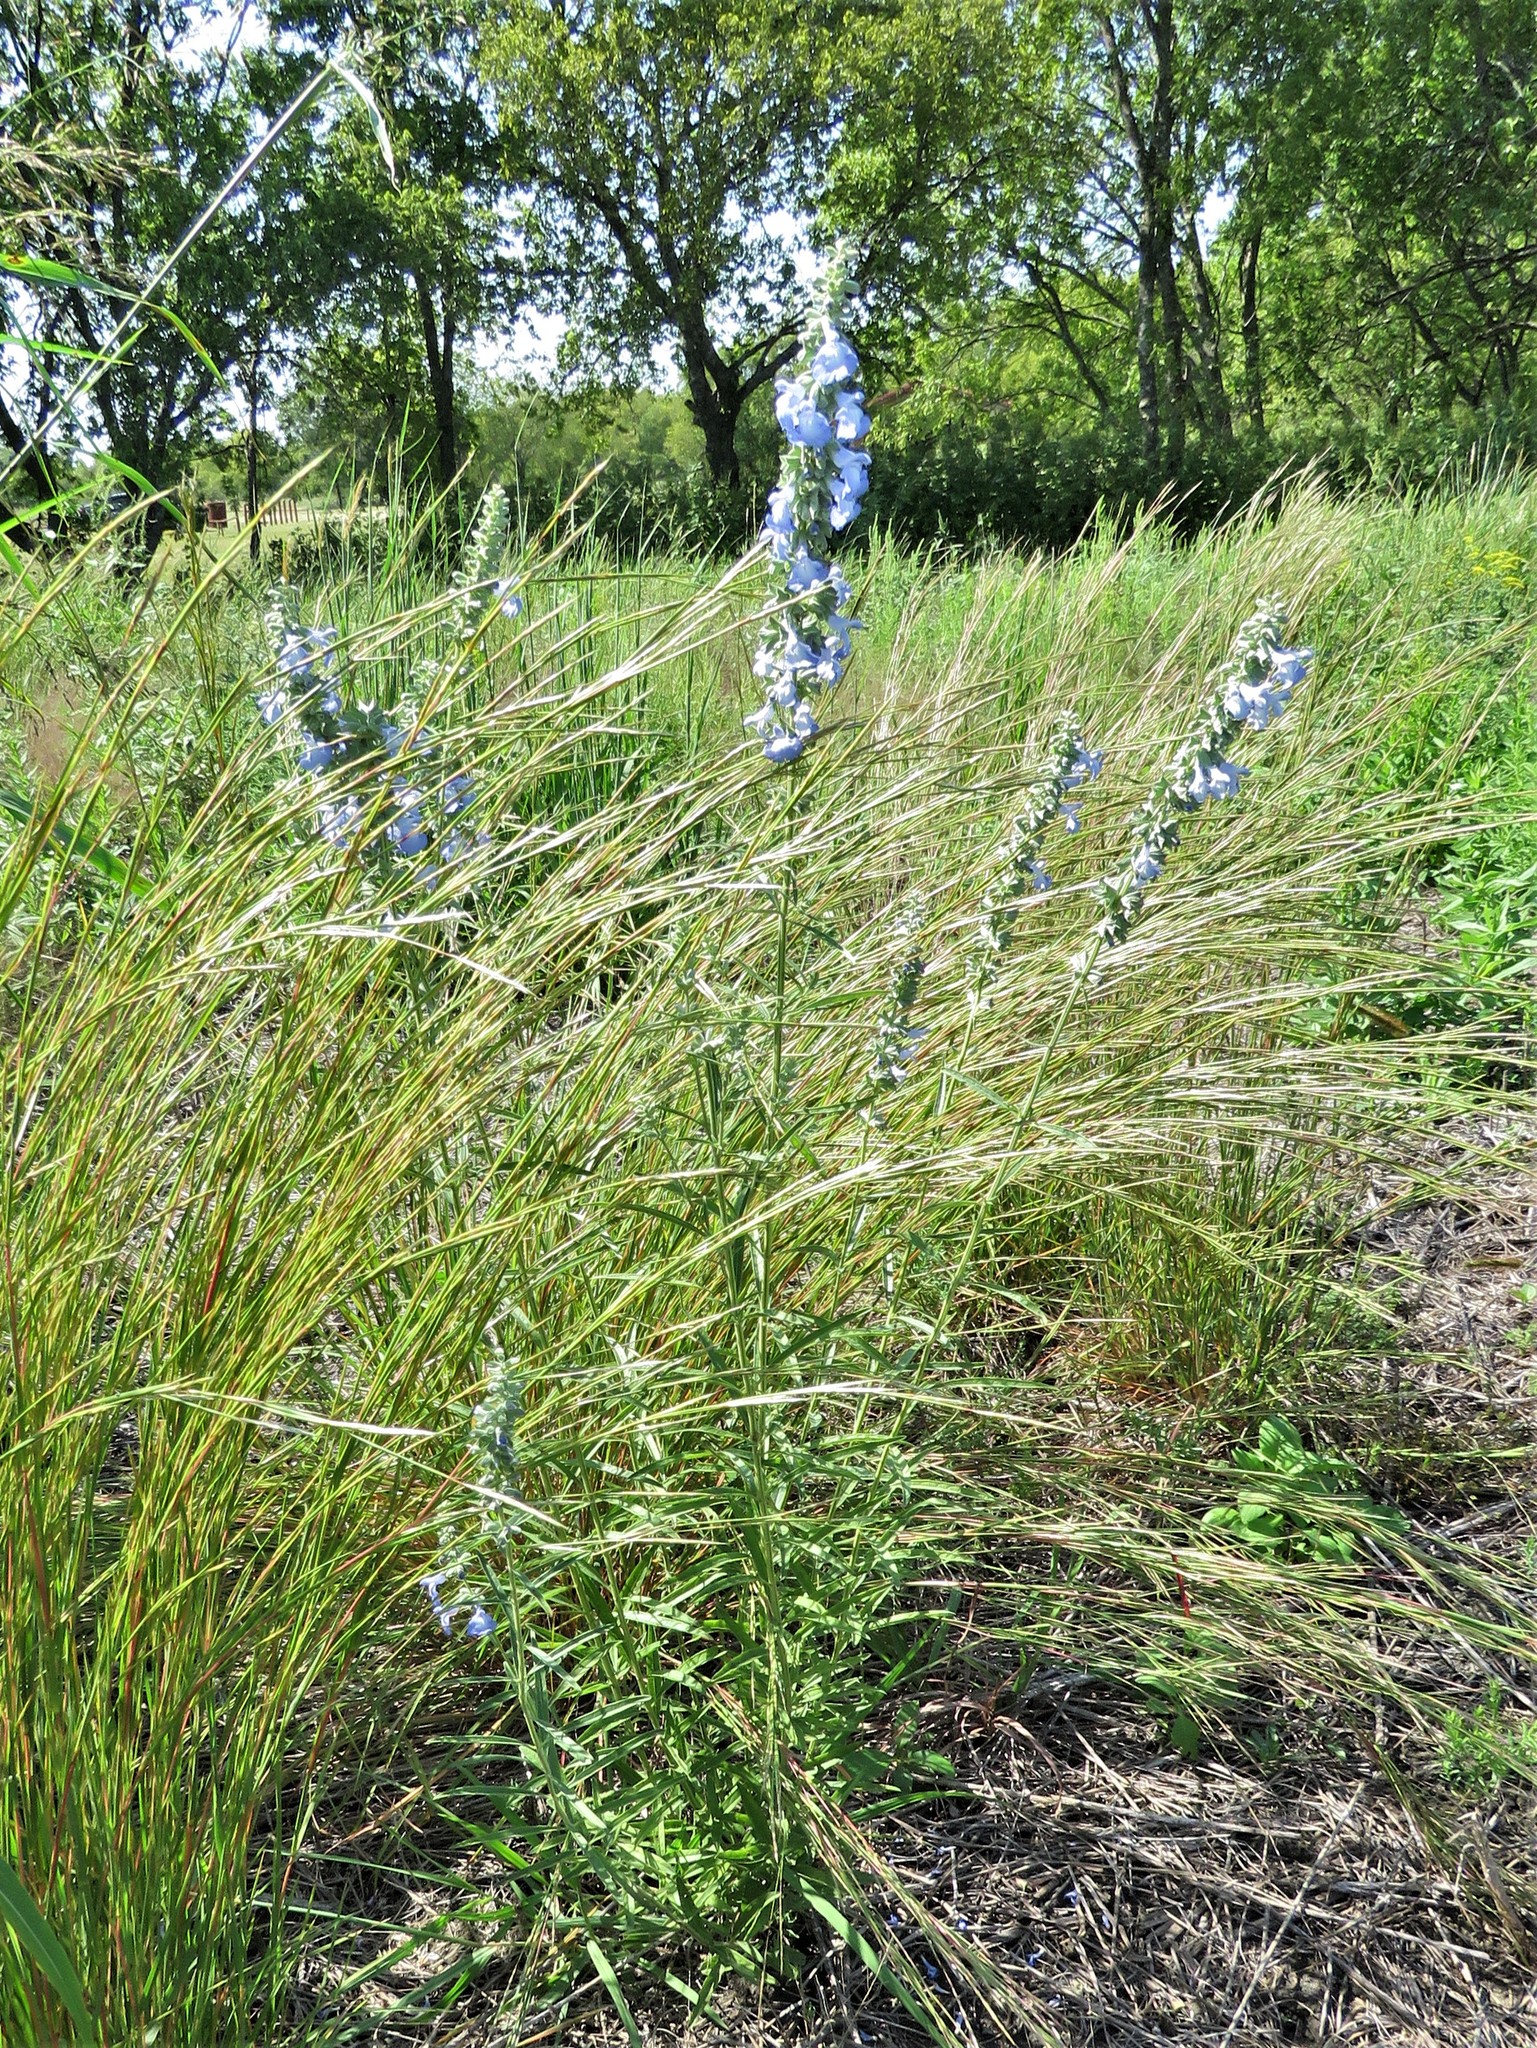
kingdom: Plantae
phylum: Tracheophyta
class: Magnoliopsida
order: Lamiales
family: Lamiaceae
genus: Salvia
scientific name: Salvia azurea
